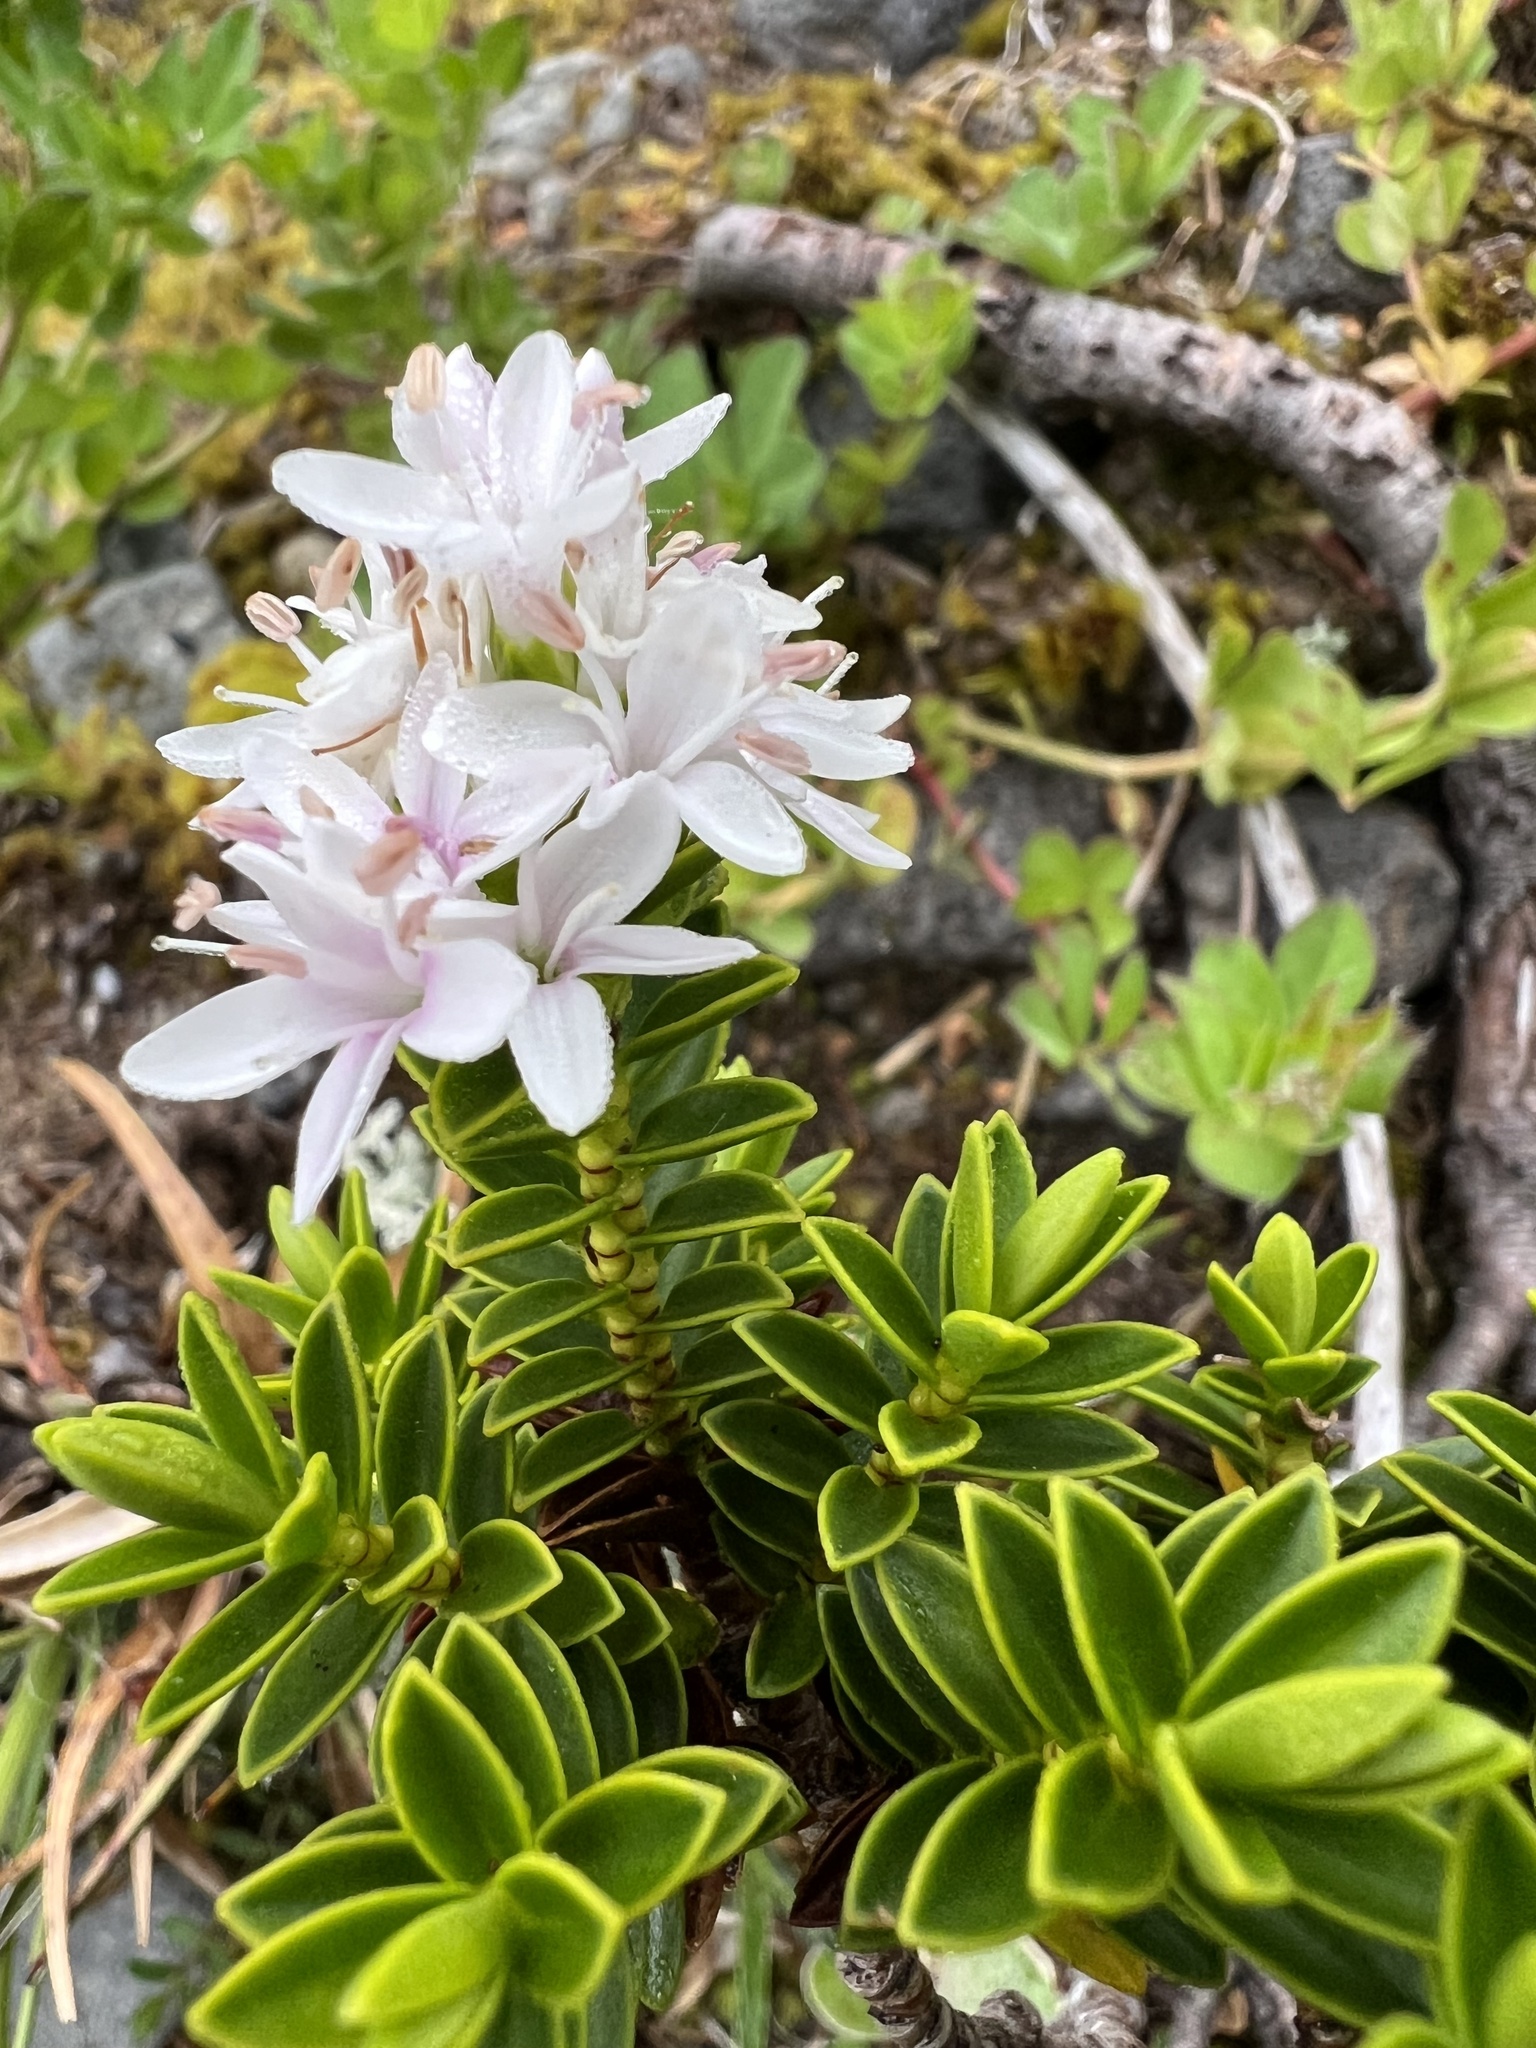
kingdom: Plantae
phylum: Tracheophyta
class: Magnoliopsida
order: Lamiales
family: Plantaginaceae
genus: Veronica
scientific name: Veronica odora
